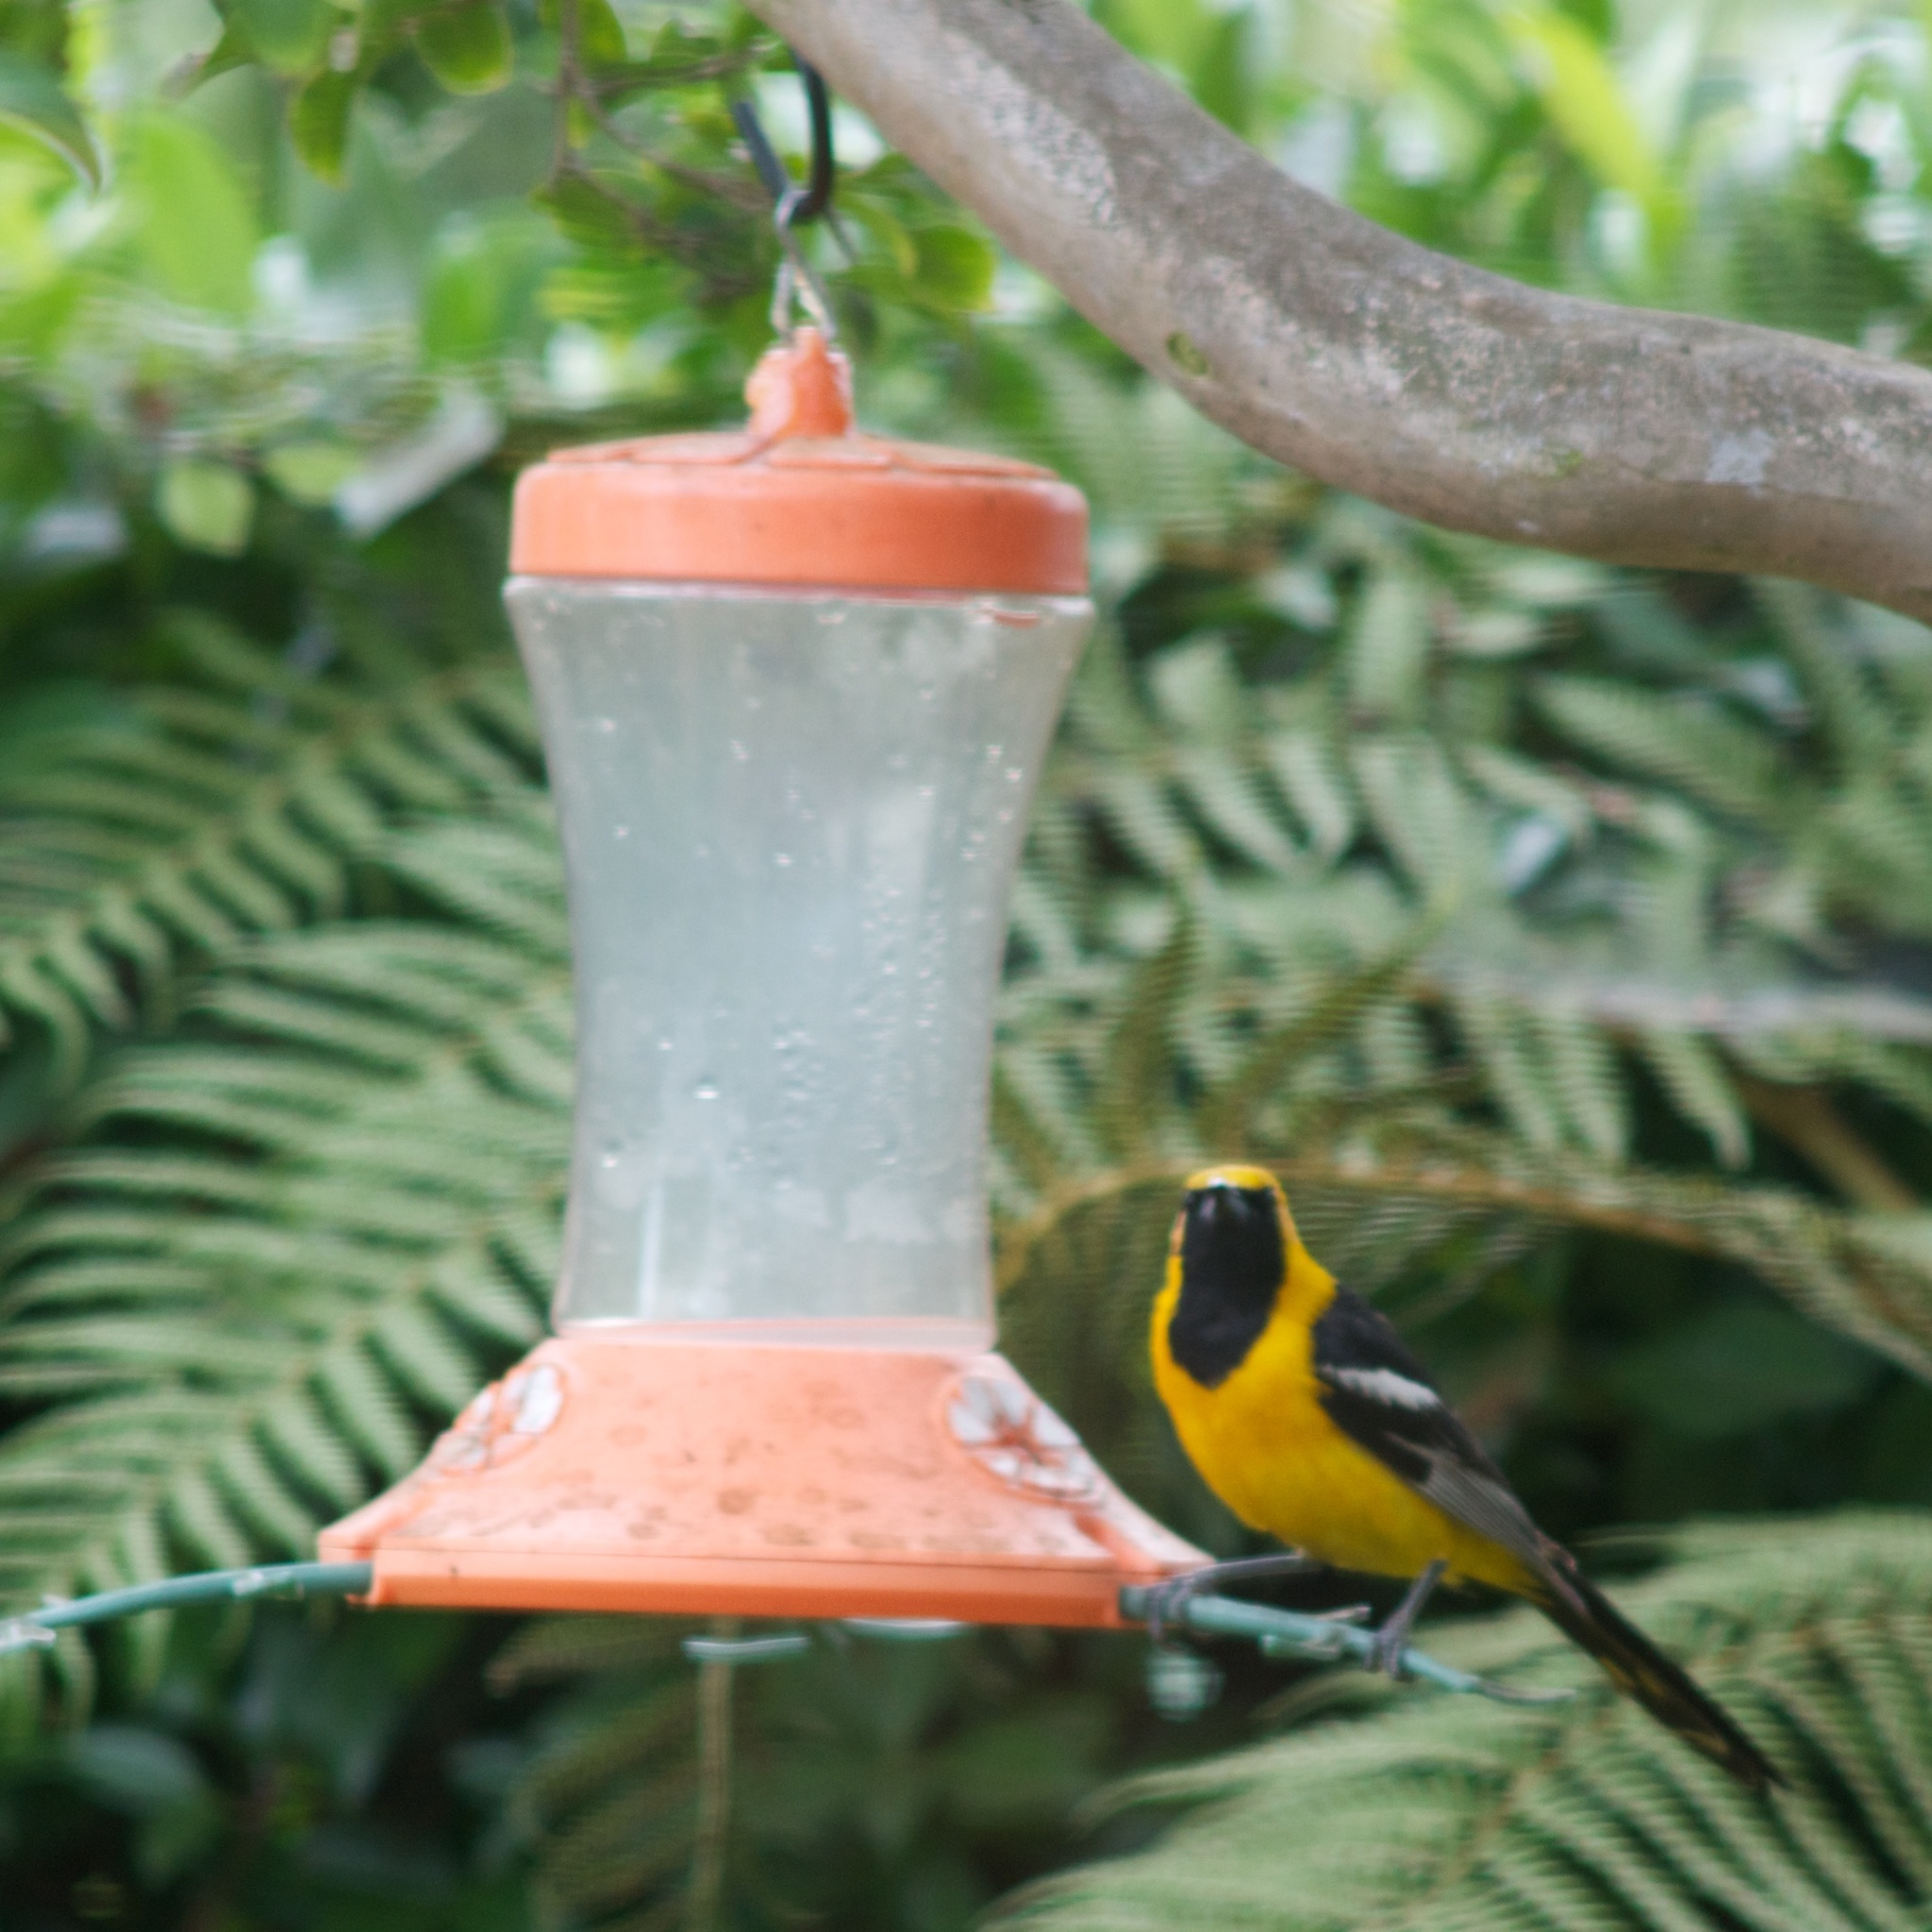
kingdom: Animalia
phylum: Chordata
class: Aves
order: Passeriformes
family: Icteridae
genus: Icterus
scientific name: Icterus cucullatus
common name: Hooded oriole
